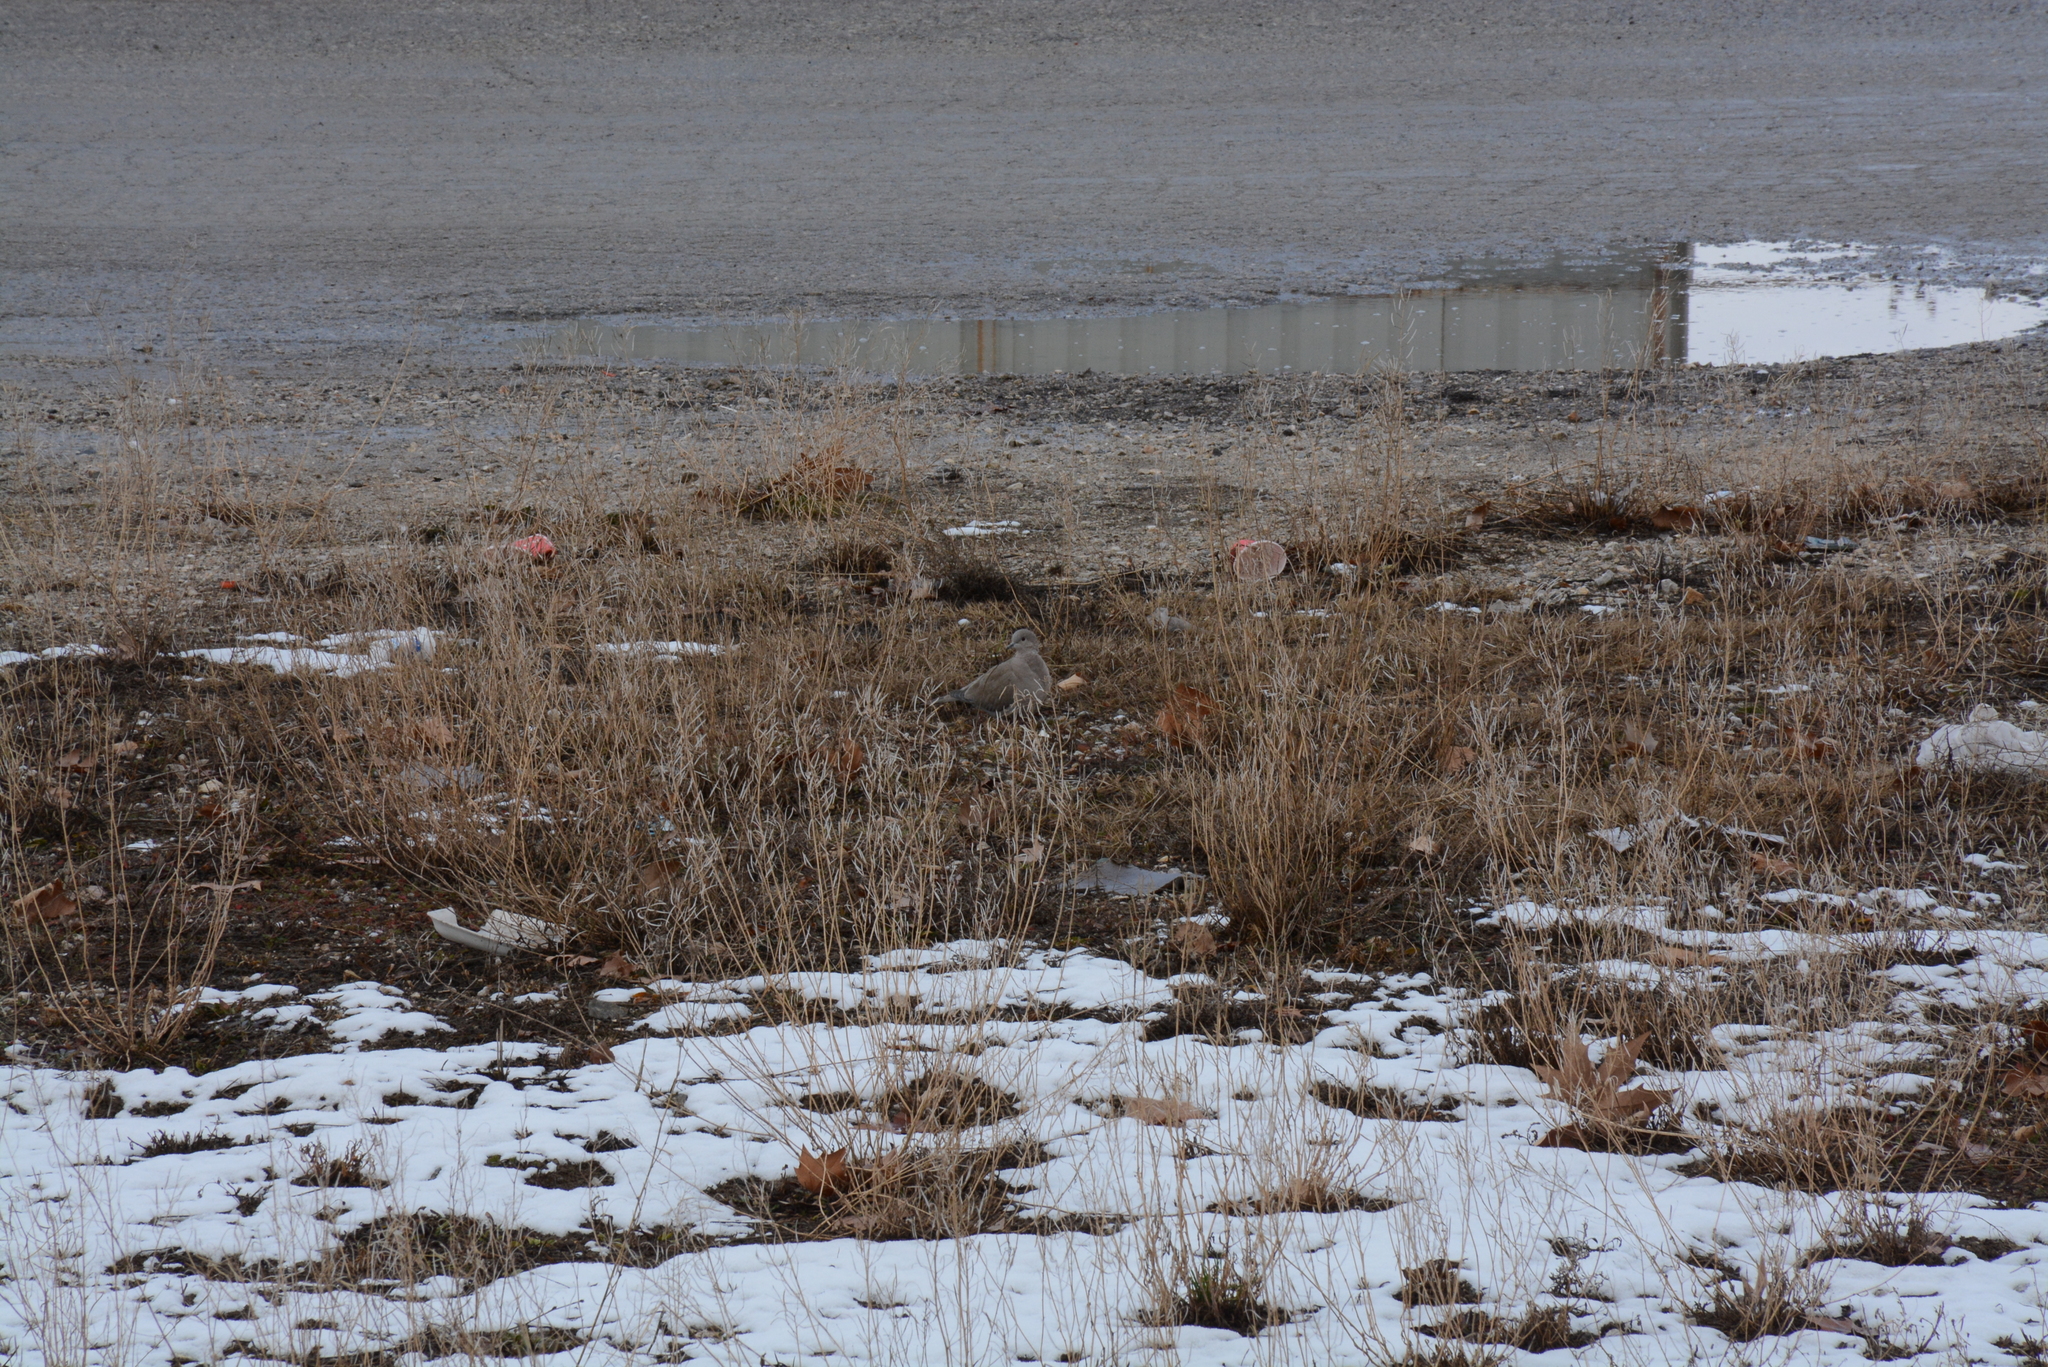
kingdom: Animalia
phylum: Chordata
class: Aves
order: Columbiformes
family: Columbidae
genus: Streptopelia
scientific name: Streptopelia decaocto
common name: Eurasian collared dove
